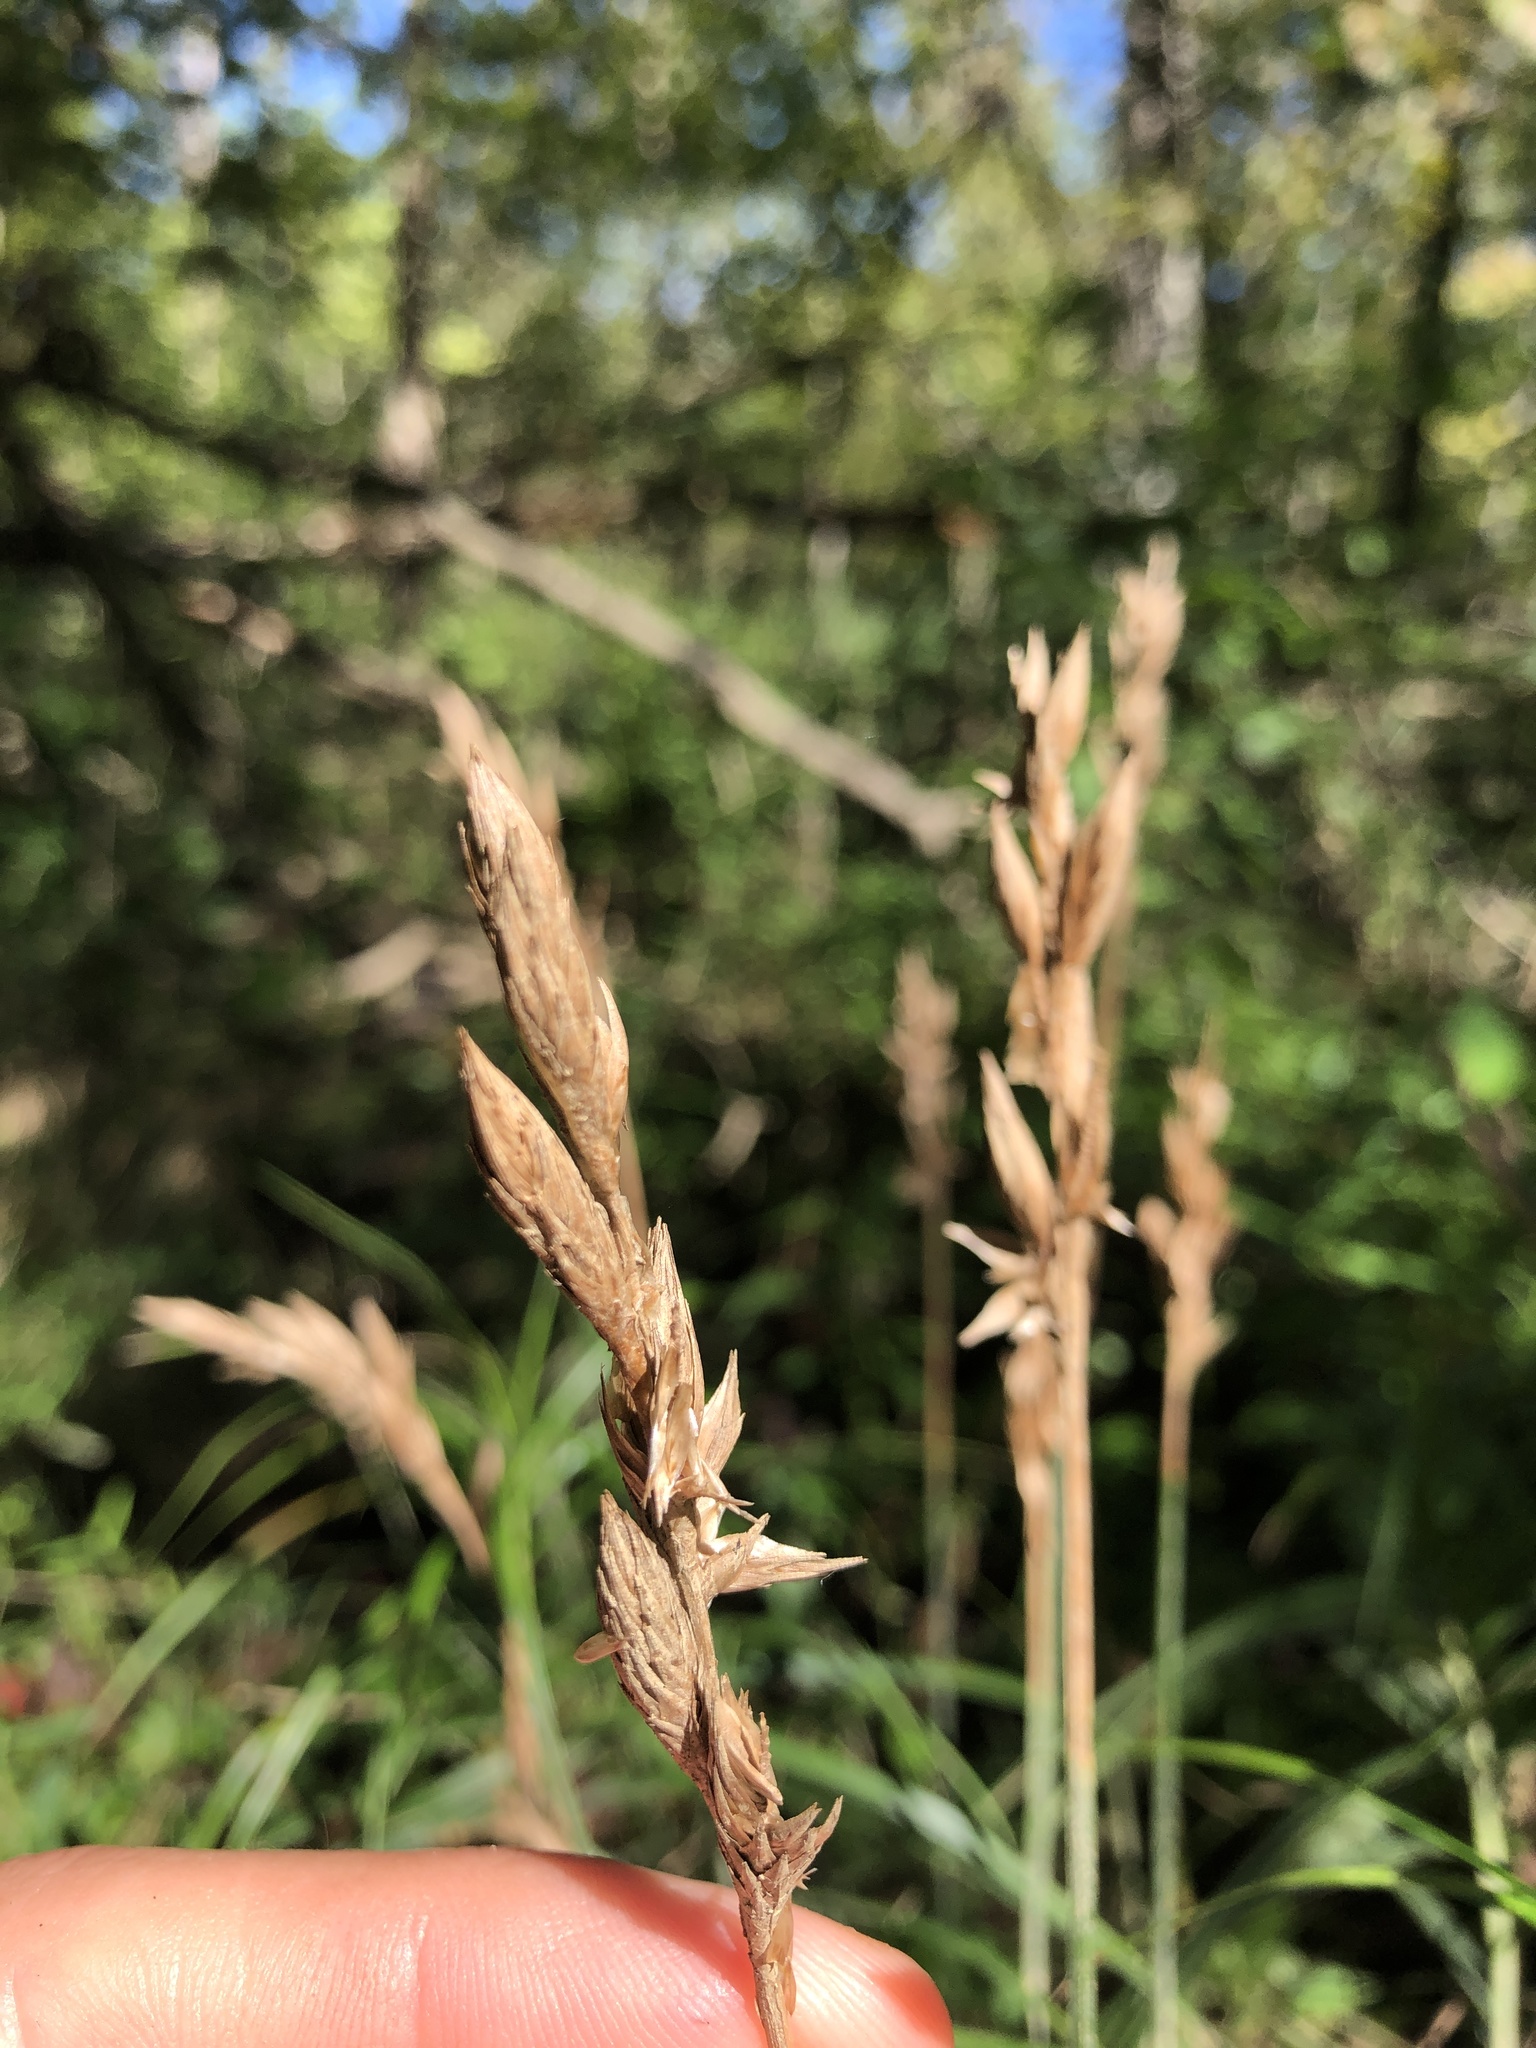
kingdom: Plantae
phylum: Tracheophyta
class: Liliopsida
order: Poales
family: Cyperaceae
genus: Carex
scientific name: Carex muskingumensis
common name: Muskingum sedge
